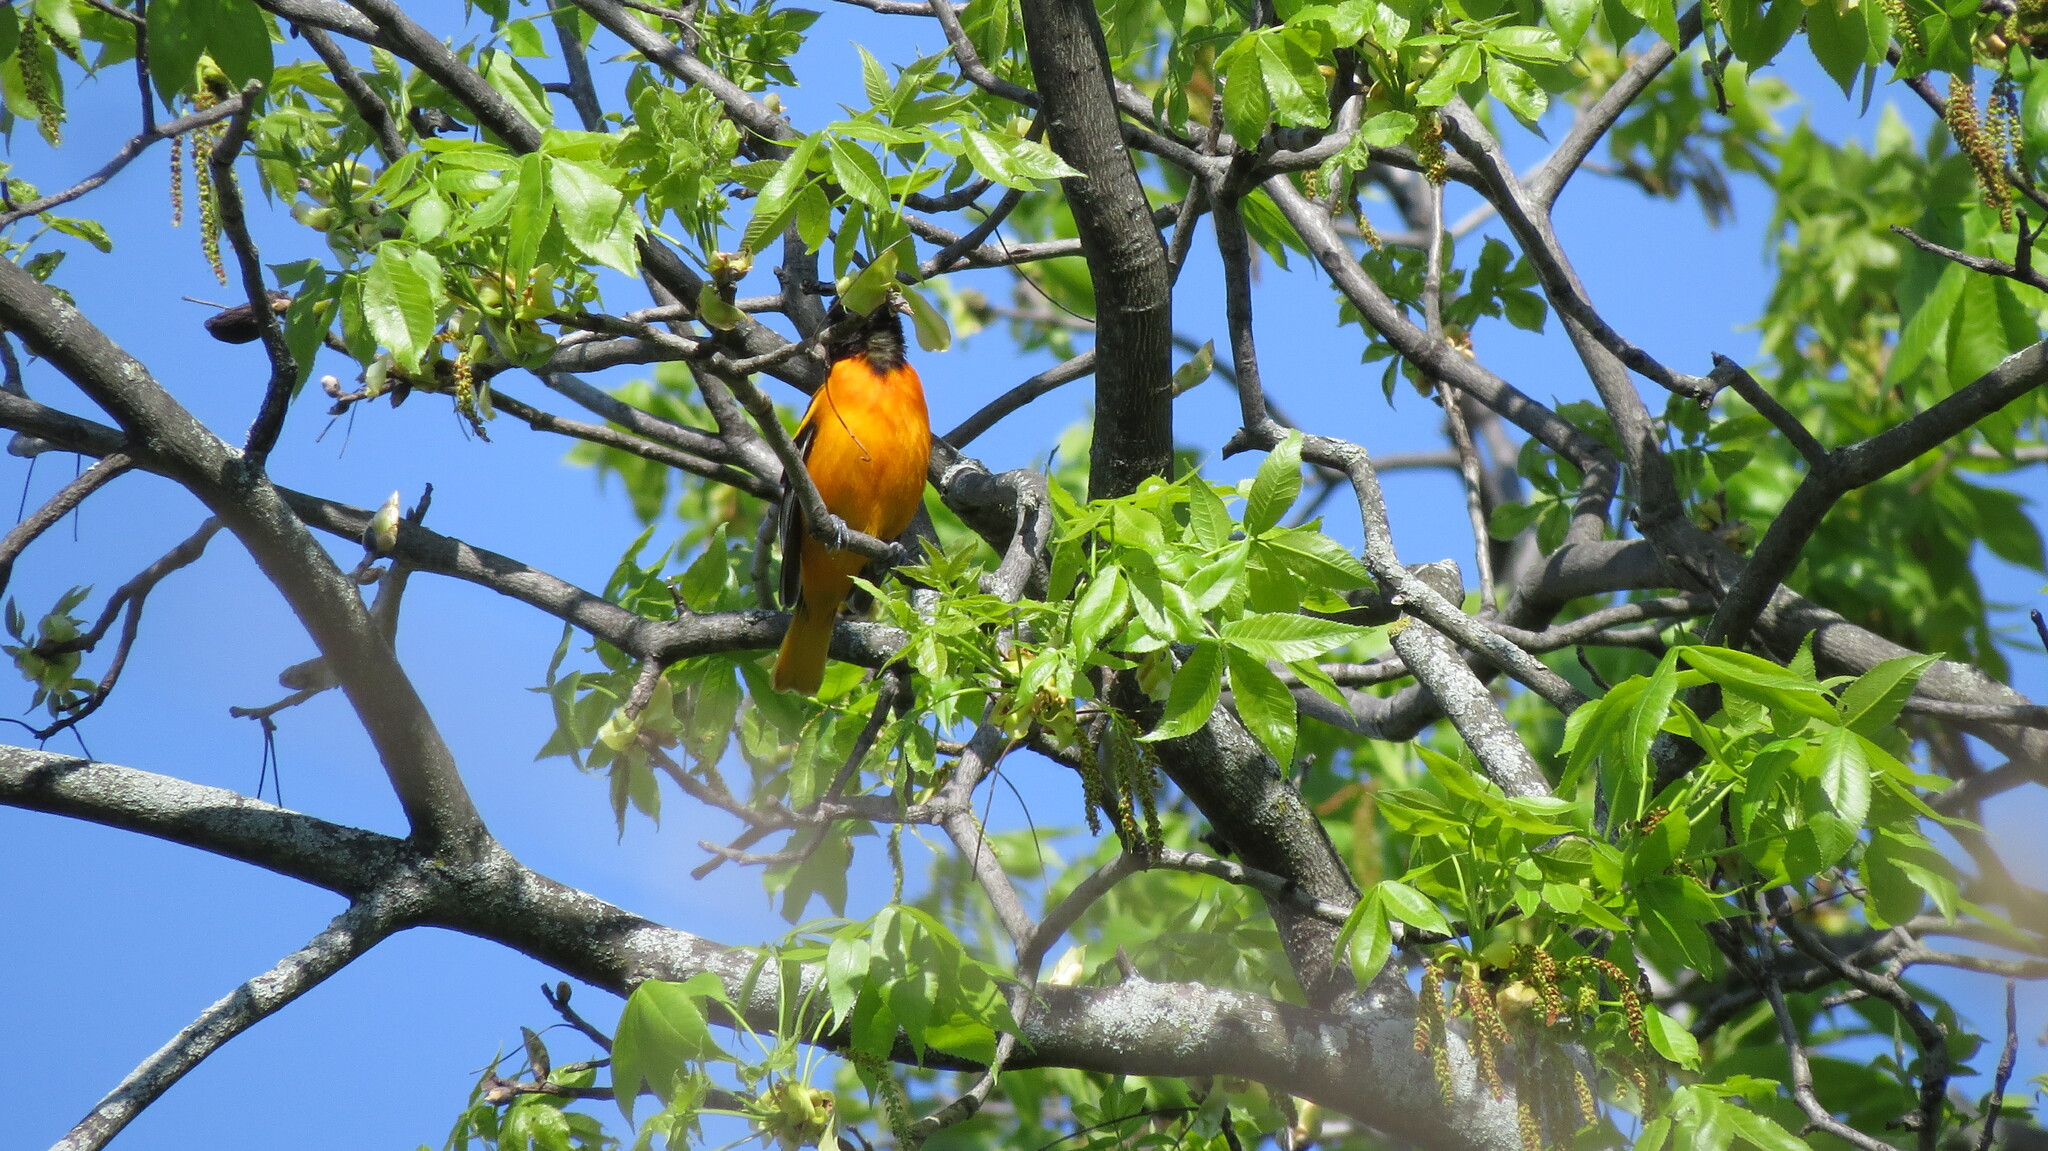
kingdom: Animalia
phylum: Chordata
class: Aves
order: Passeriformes
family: Icteridae
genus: Icterus
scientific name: Icterus galbula
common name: Baltimore oriole
